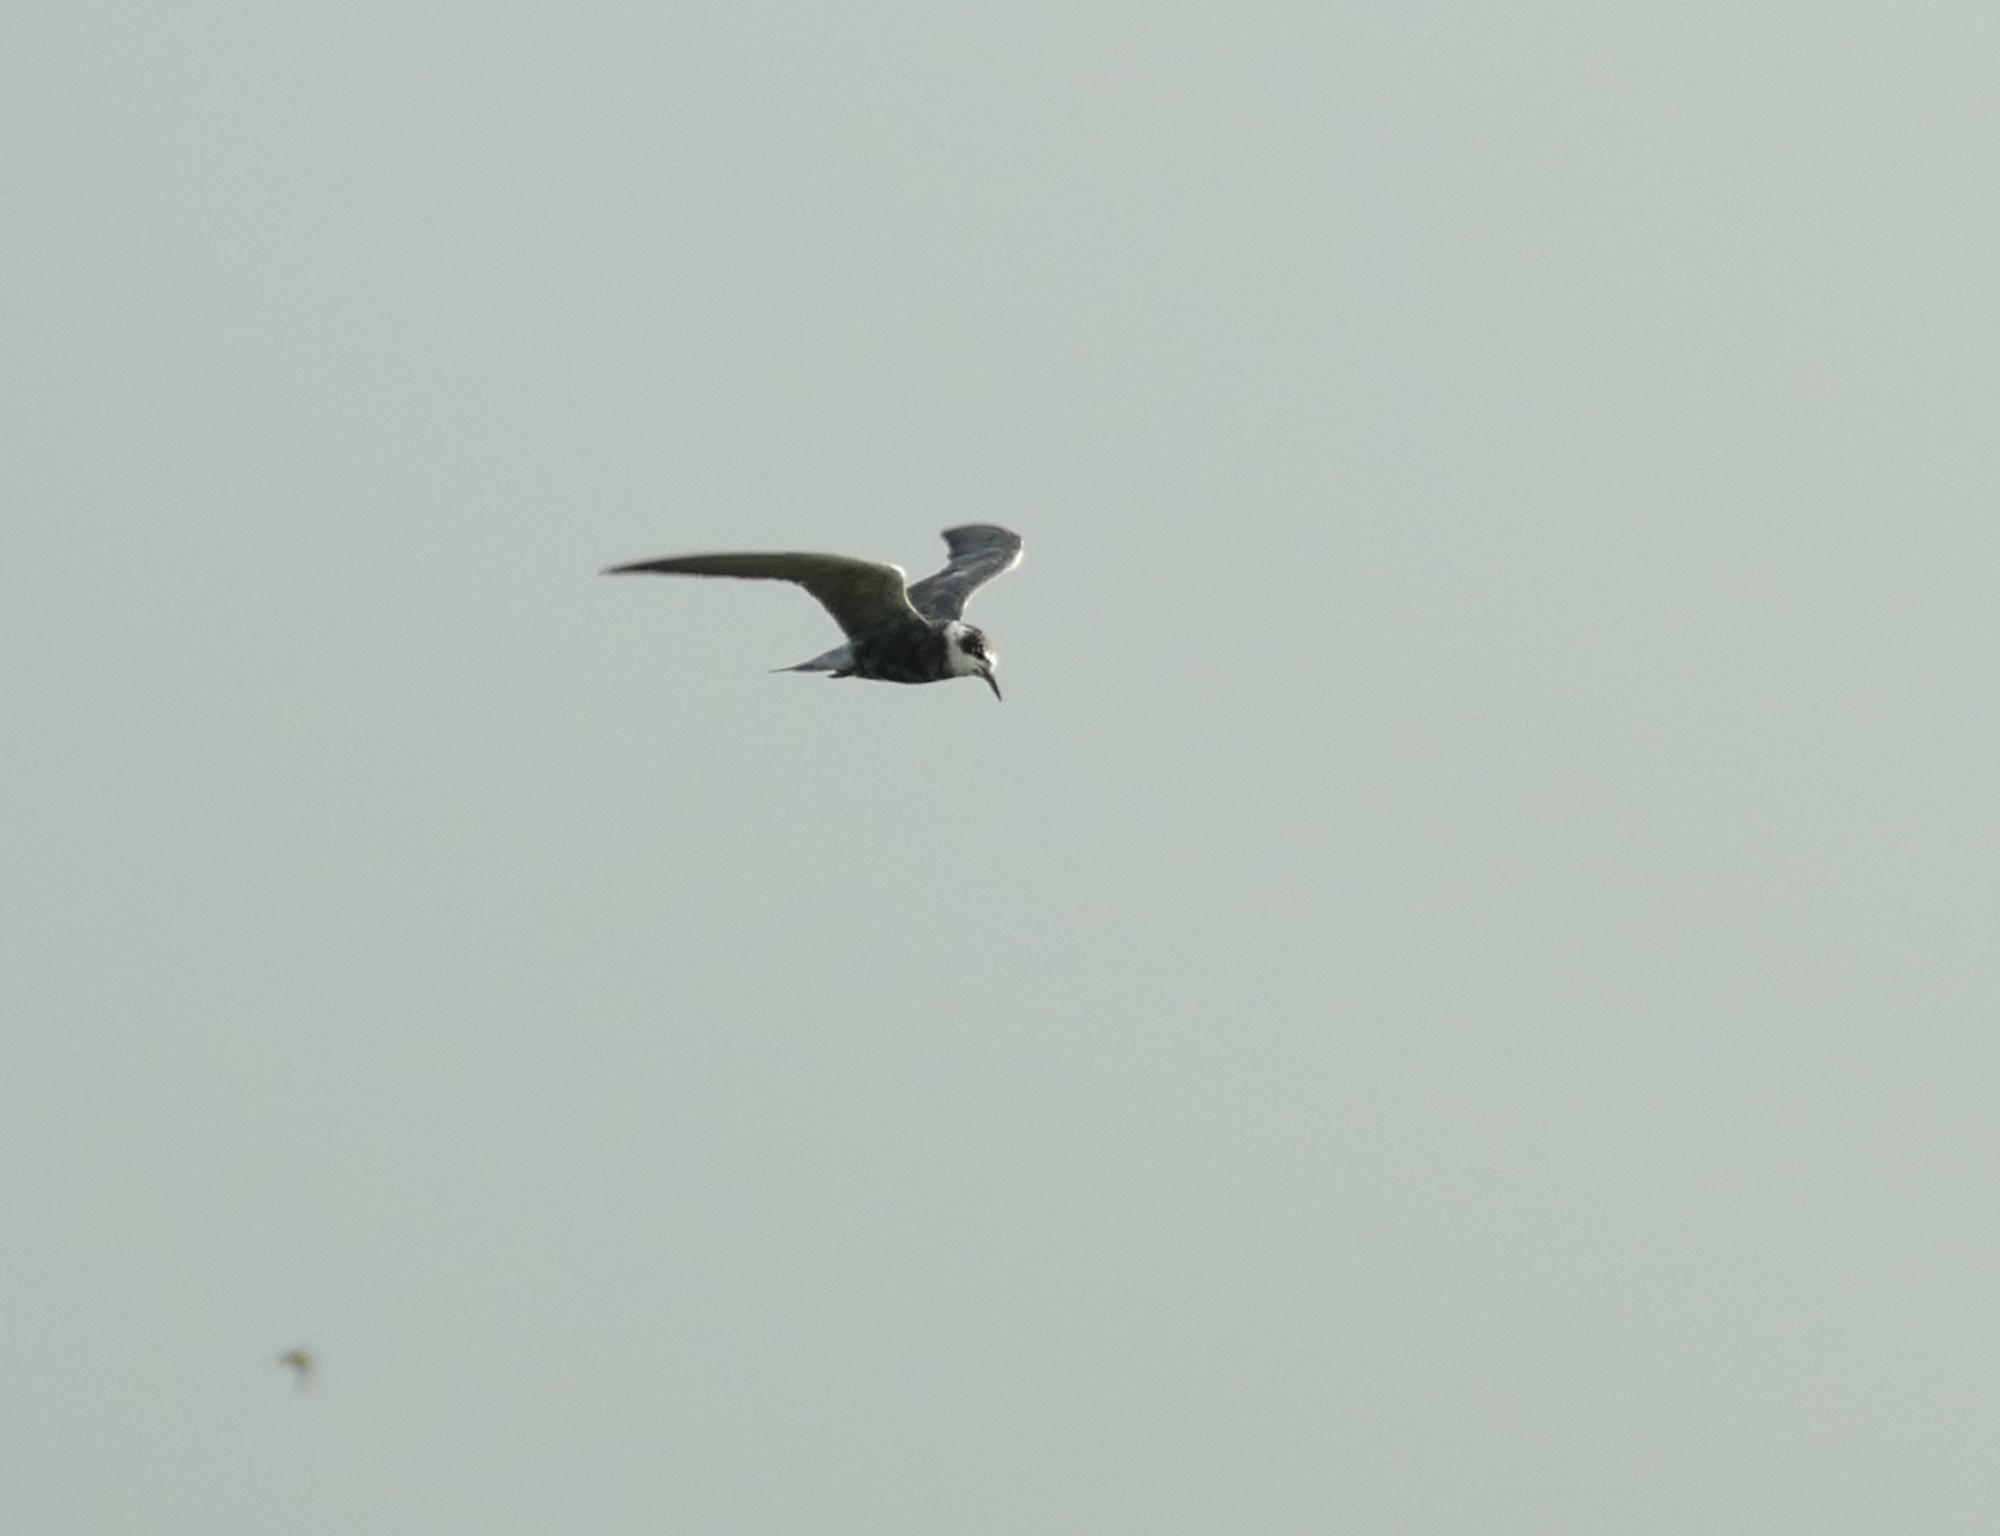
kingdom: Animalia
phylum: Chordata
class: Aves
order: Charadriiformes
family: Laridae
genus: Chlidonias
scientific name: Chlidonias niger
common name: Black tern
